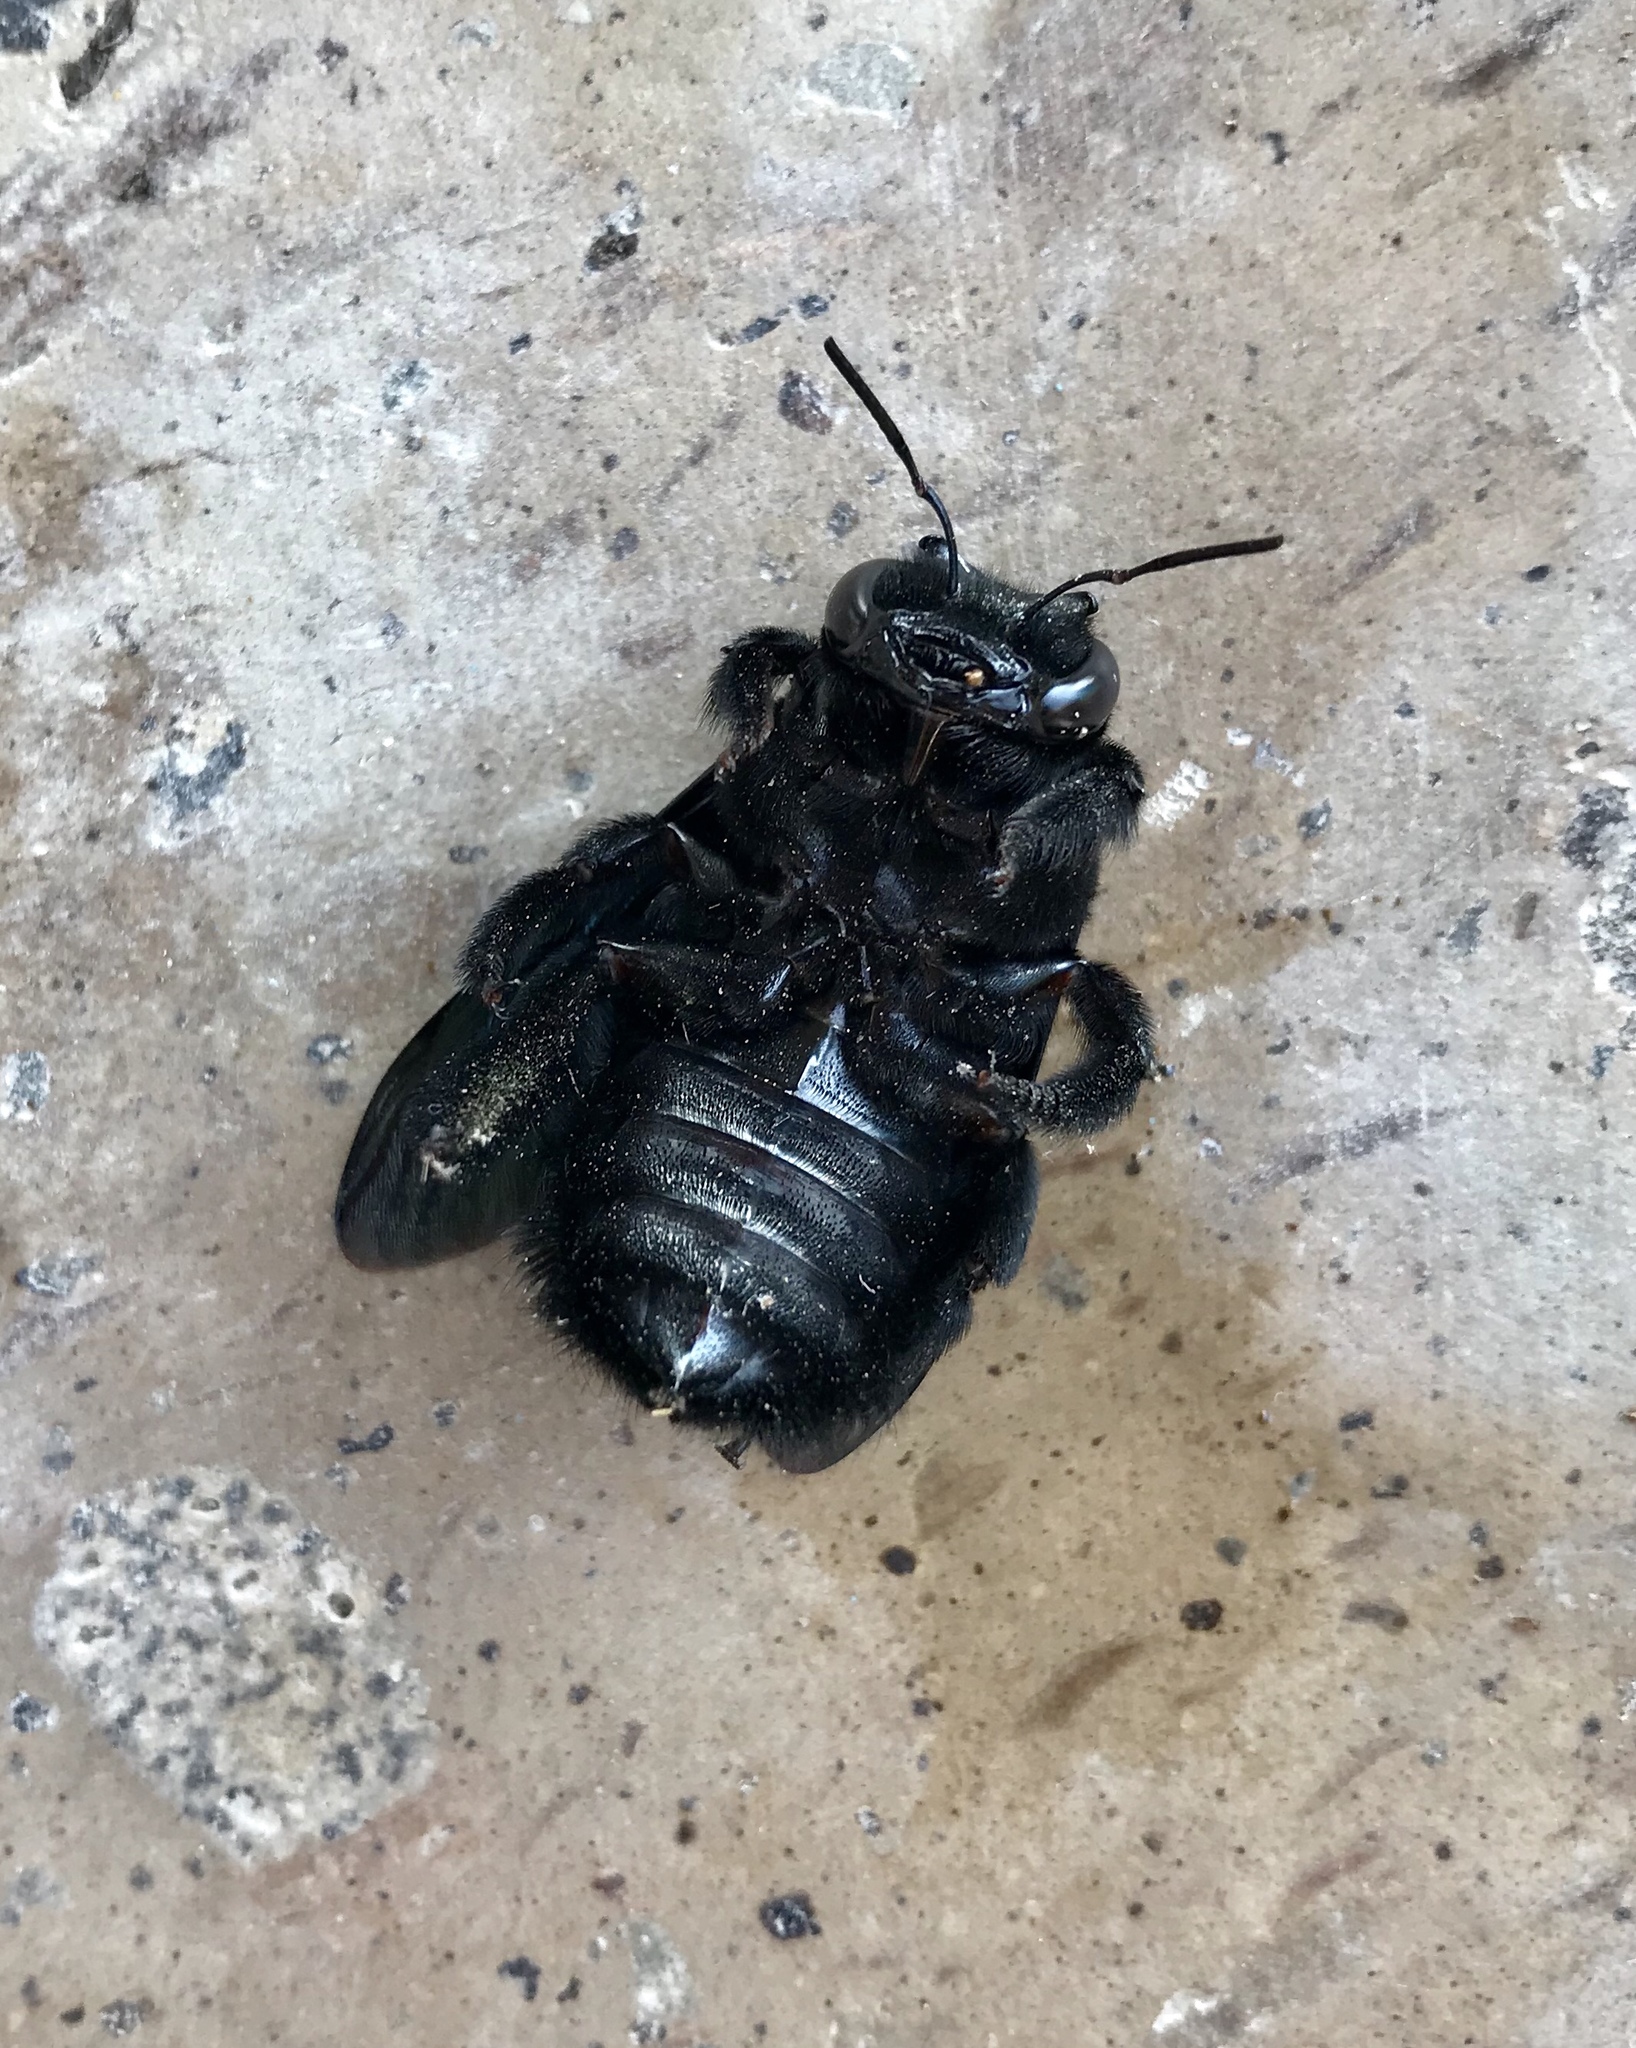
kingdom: Animalia
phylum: Arthropoda
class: Insecta
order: Hymenoptera
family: Apidae
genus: Xylocopa
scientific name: Xylocopa fimbriata
